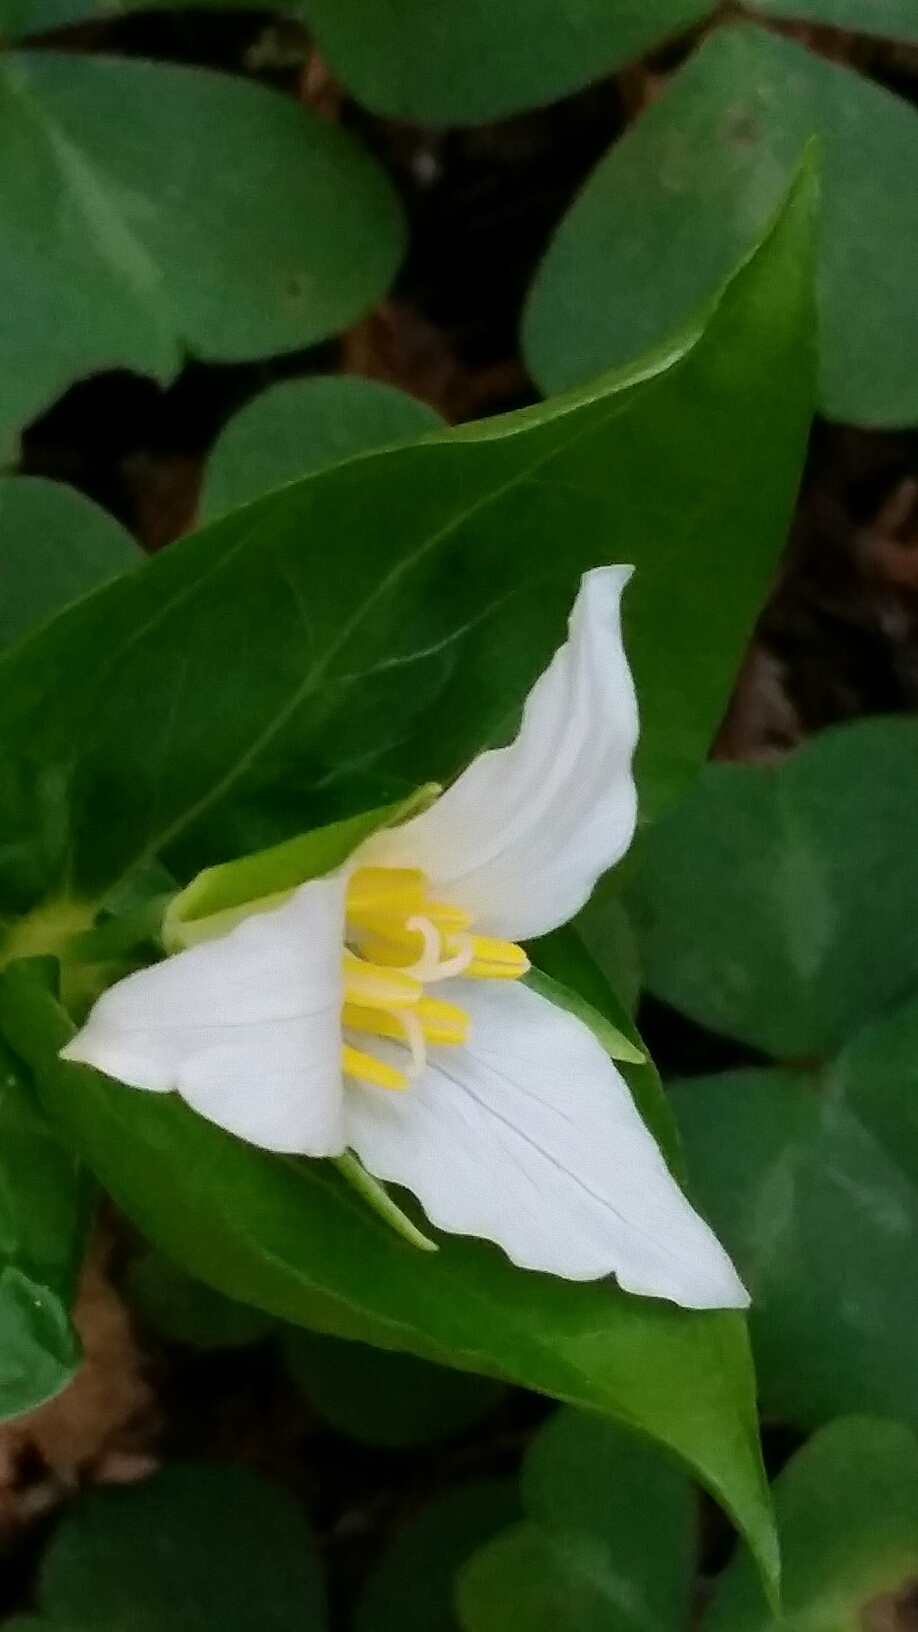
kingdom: Plantae
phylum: Tracheophyta
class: Liliopsida
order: Liliales
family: Melanthiaceae
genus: Trillium
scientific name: Trillium ovatum
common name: Pacific trillium
